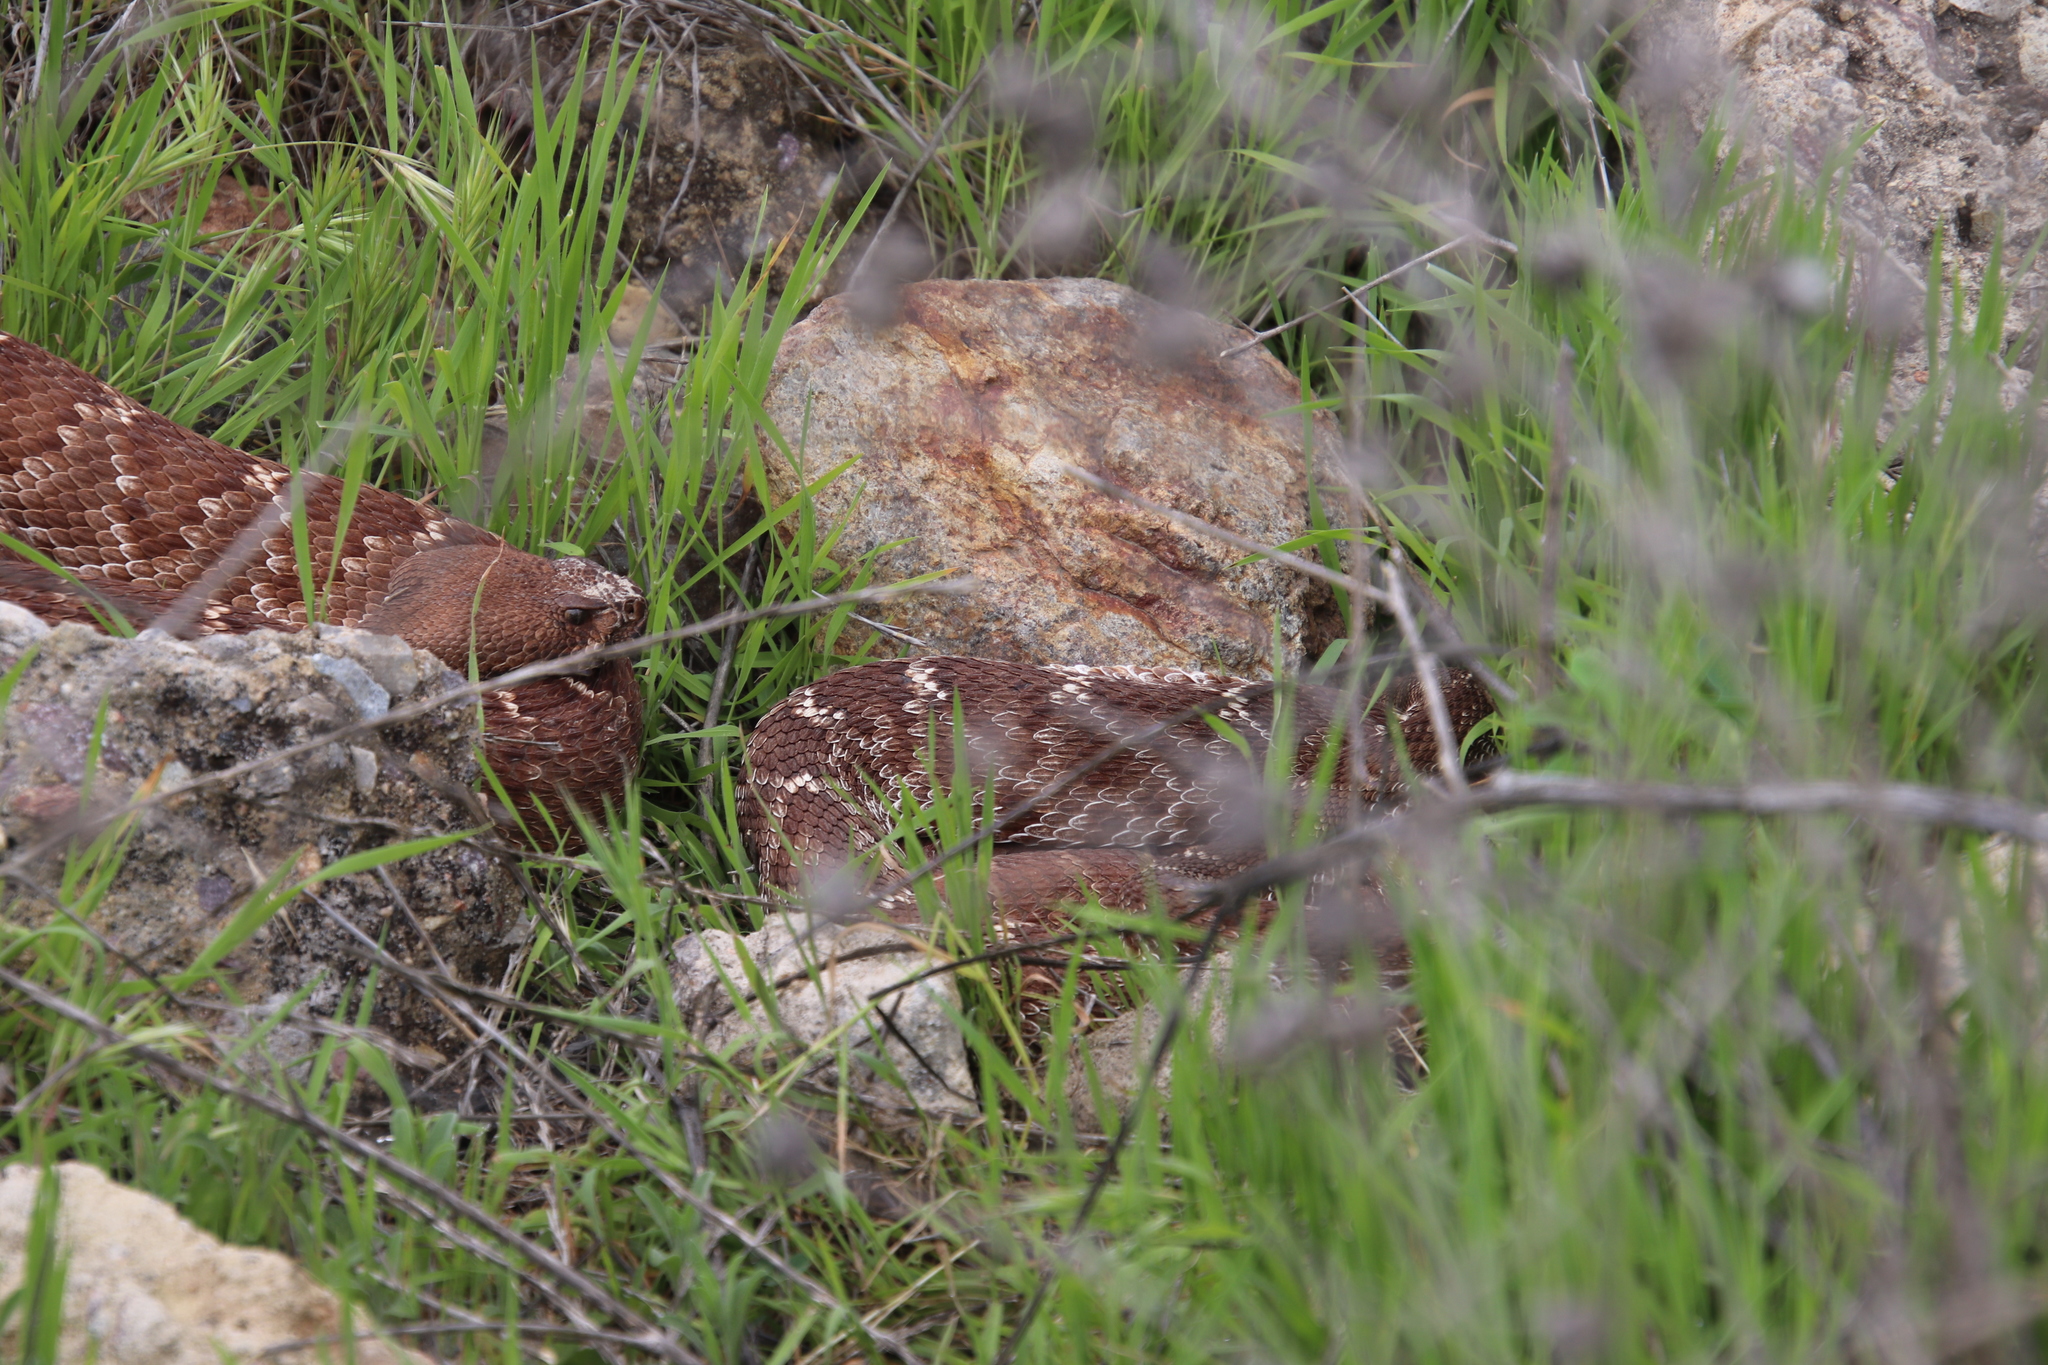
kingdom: Animalia
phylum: Chordata
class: Squamata
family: Viperidae
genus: Crotalus
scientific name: Crotalus ruber
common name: Red diamond rattlesnake
